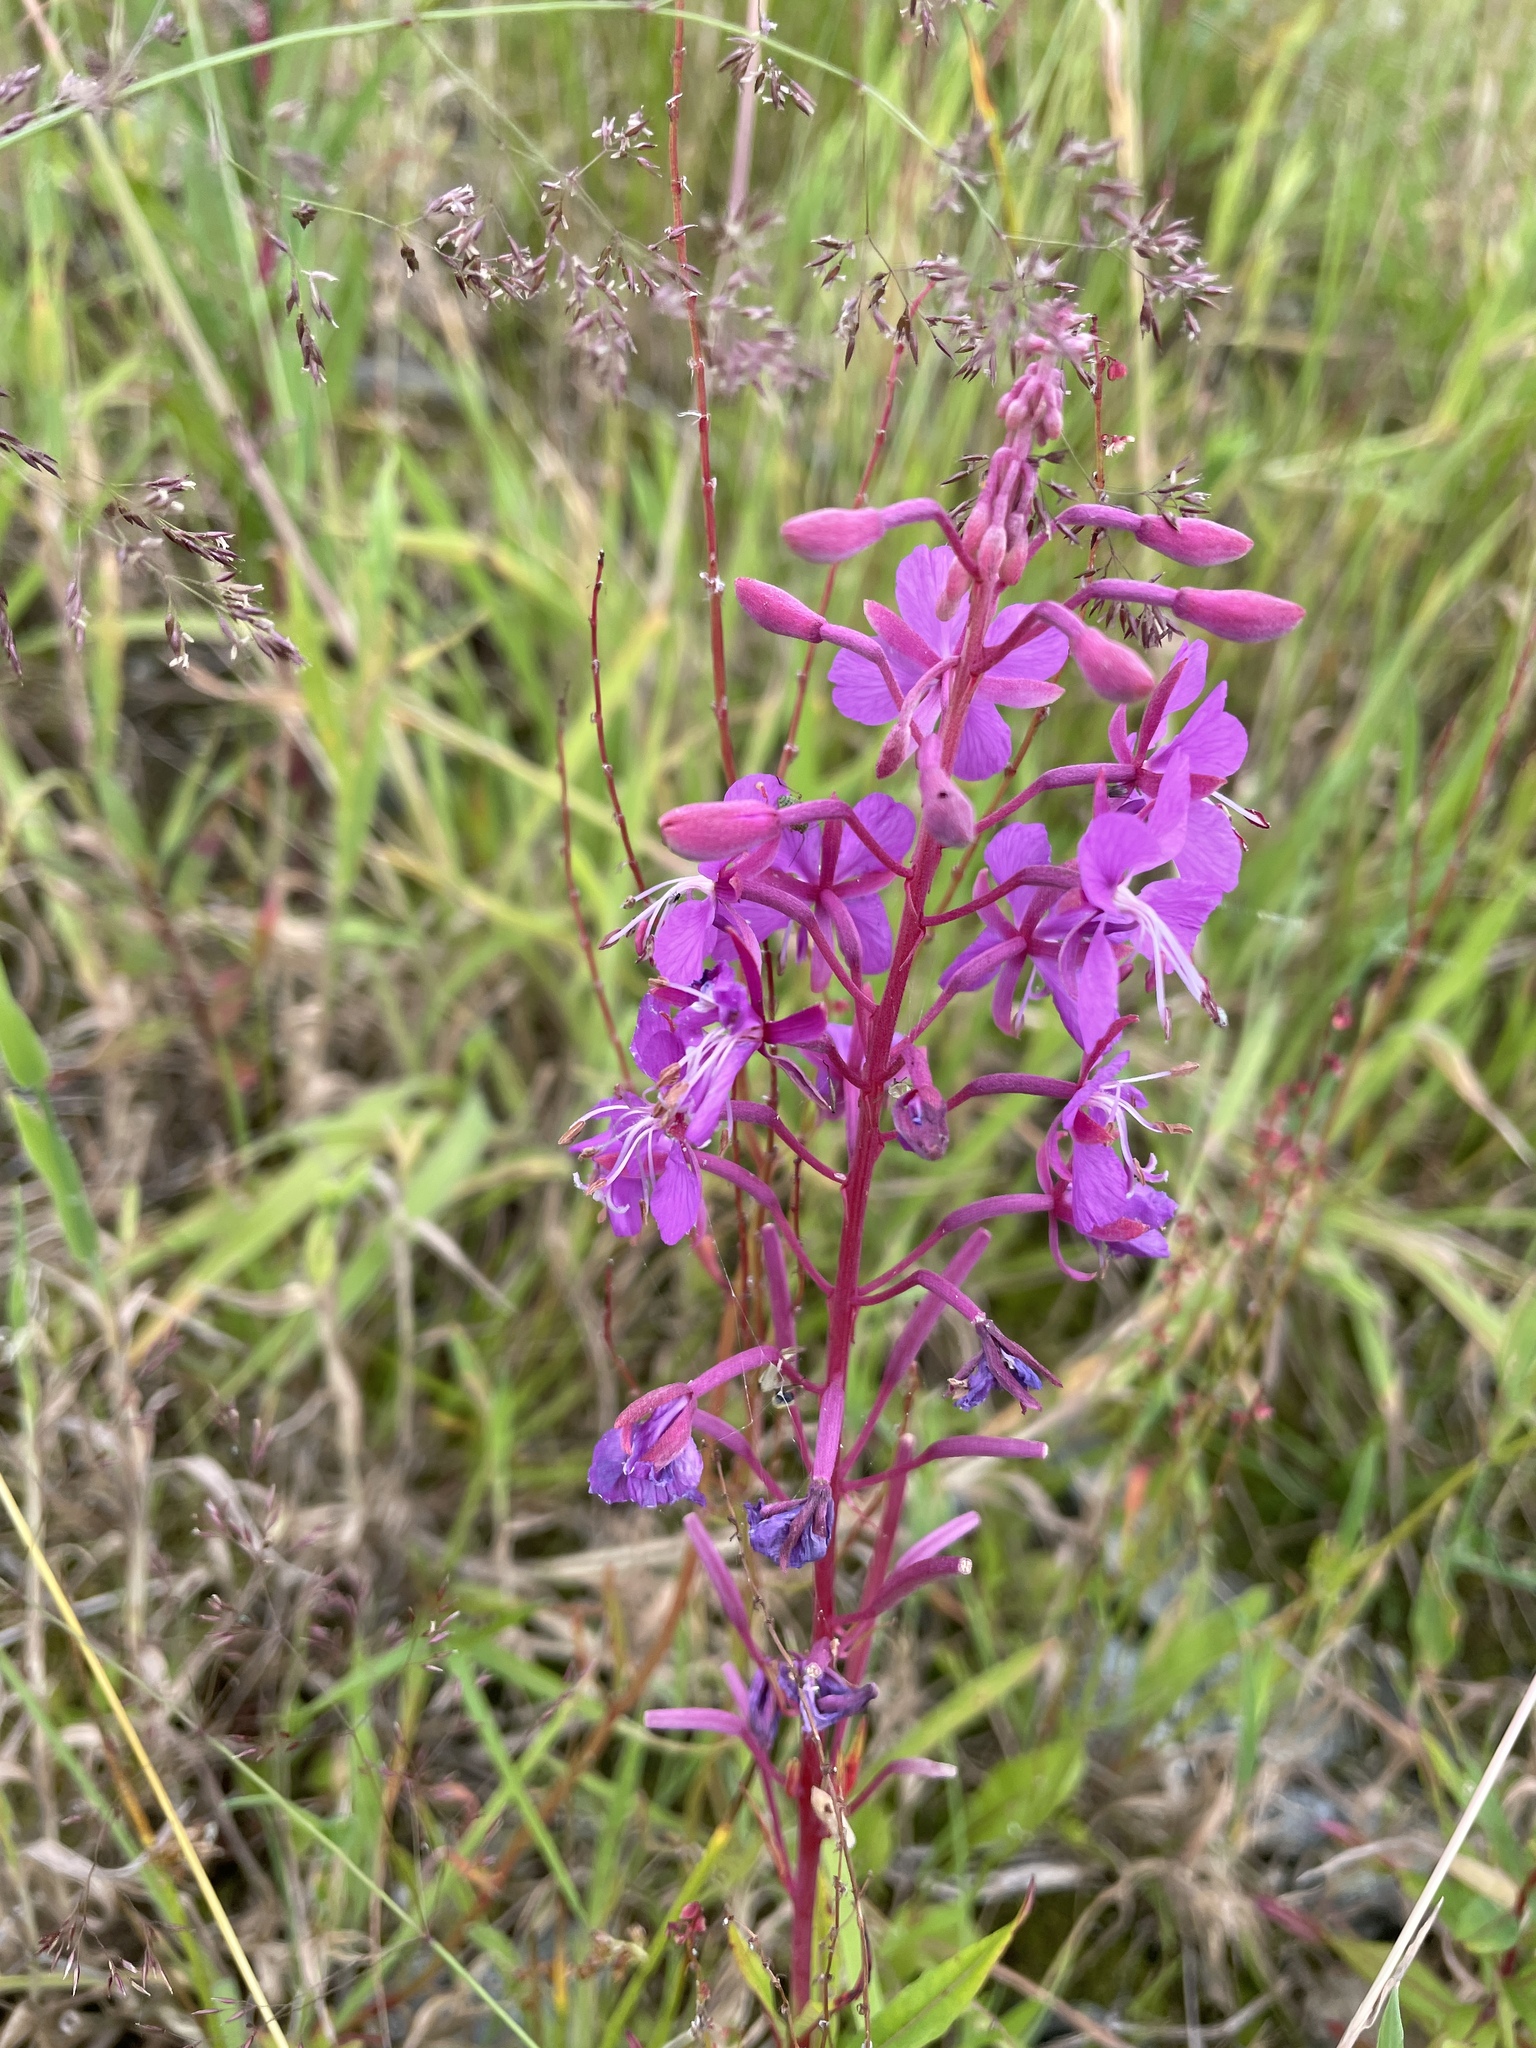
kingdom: Plantae
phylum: Tracheophyta
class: Magnoliopsida
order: Myrtales
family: Onagraceae
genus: Chamaenerion
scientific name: Chamaenerion angustifolium
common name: Fireweed
